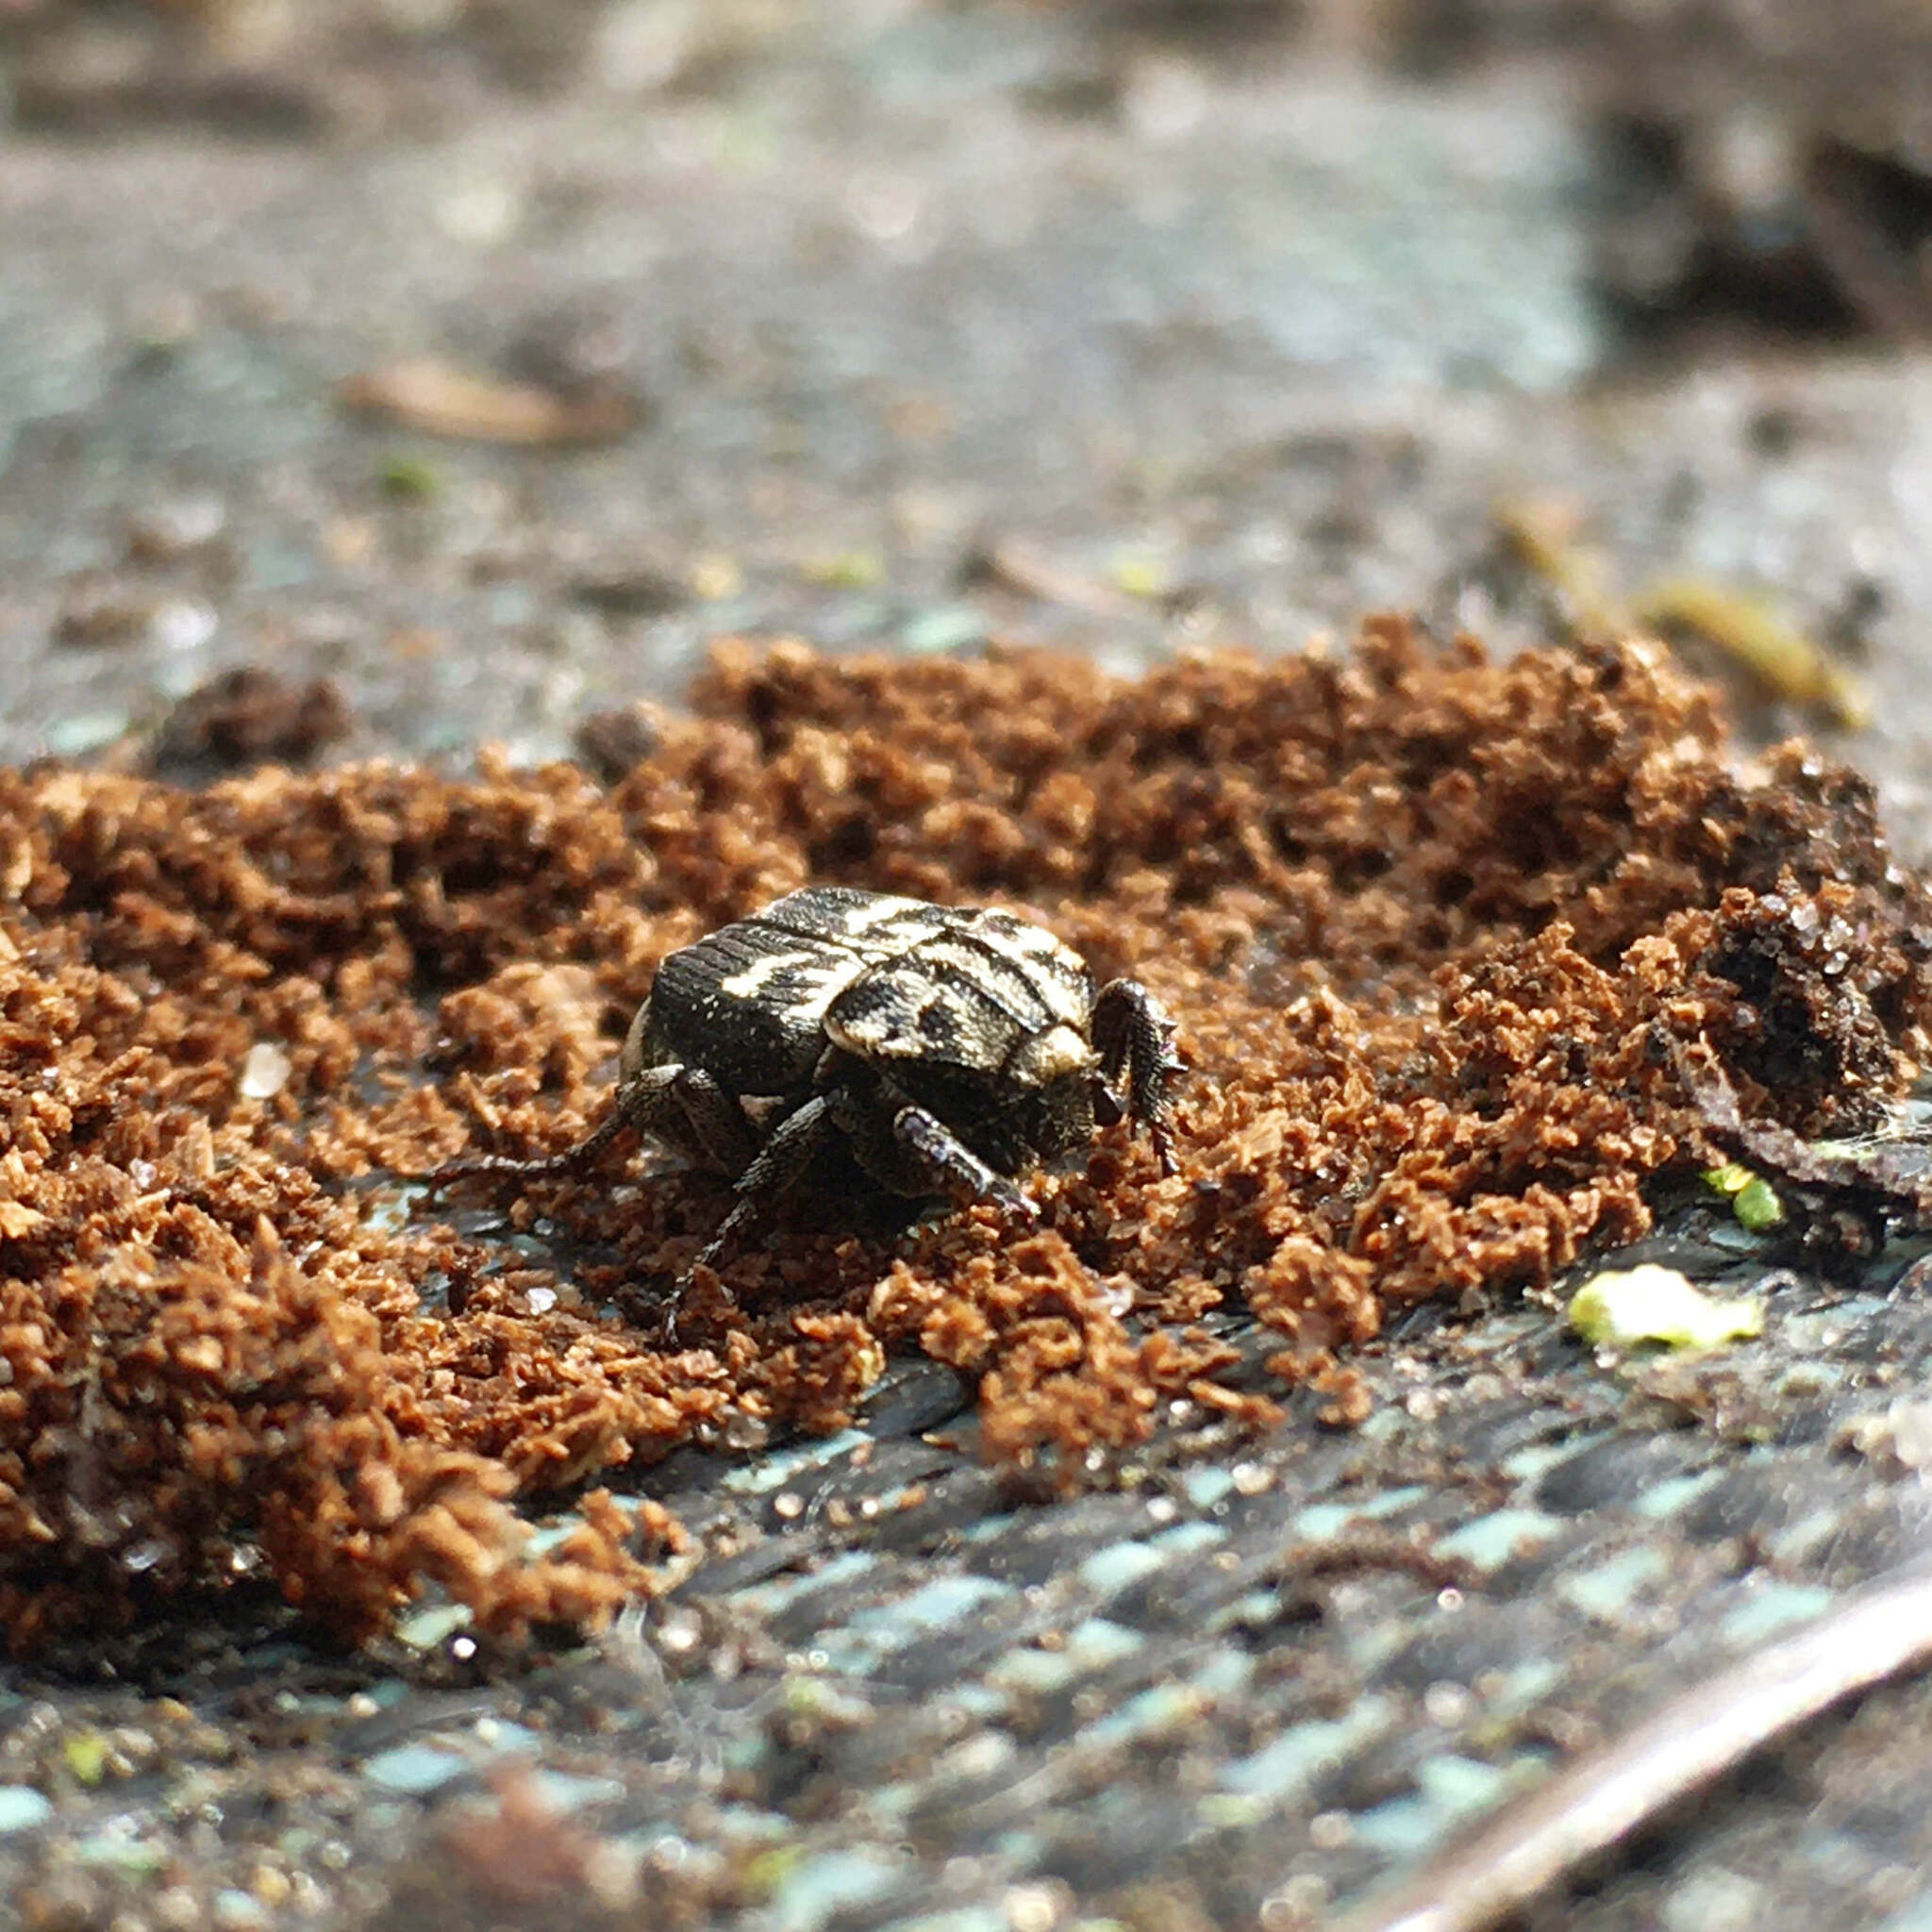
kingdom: Animalia
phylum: Arthropoda
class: Insecta
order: Coleoptera
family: Scarabaeidae
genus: Valgus
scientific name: Valgus hemipterus
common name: Bug flower chafer
